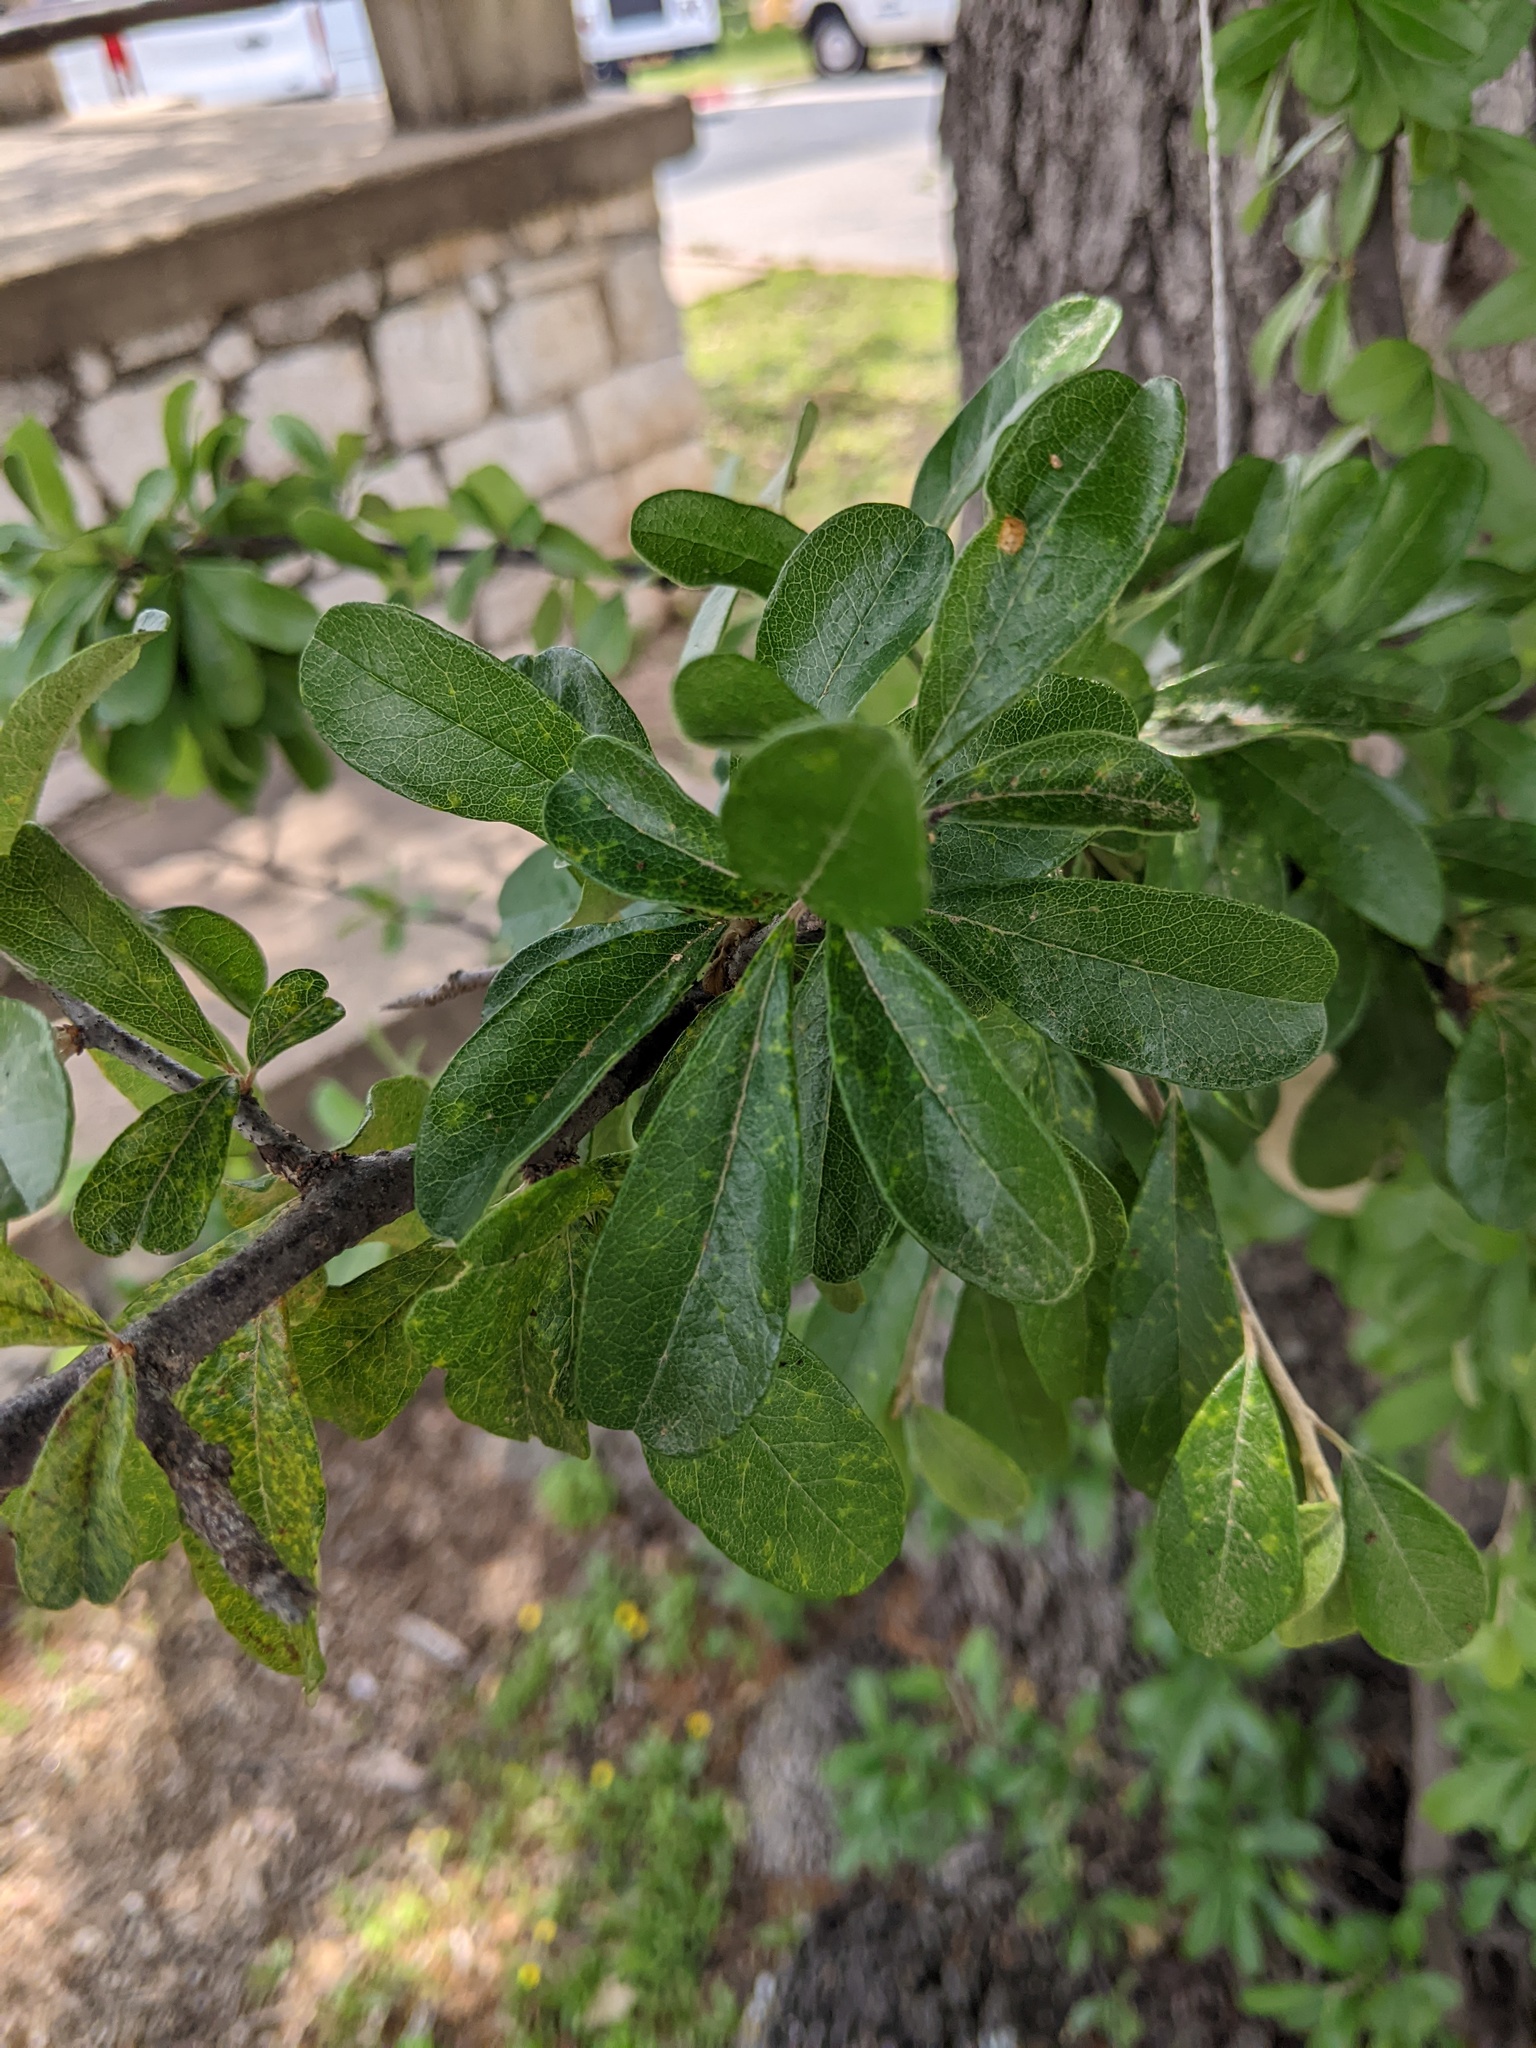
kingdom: Plantae
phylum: Tracheophyta
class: Magnoliopsida
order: Ericales
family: Sapotaceae
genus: Sideroxylon
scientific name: Sideroxylon lanuginosum
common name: Chittamwood
